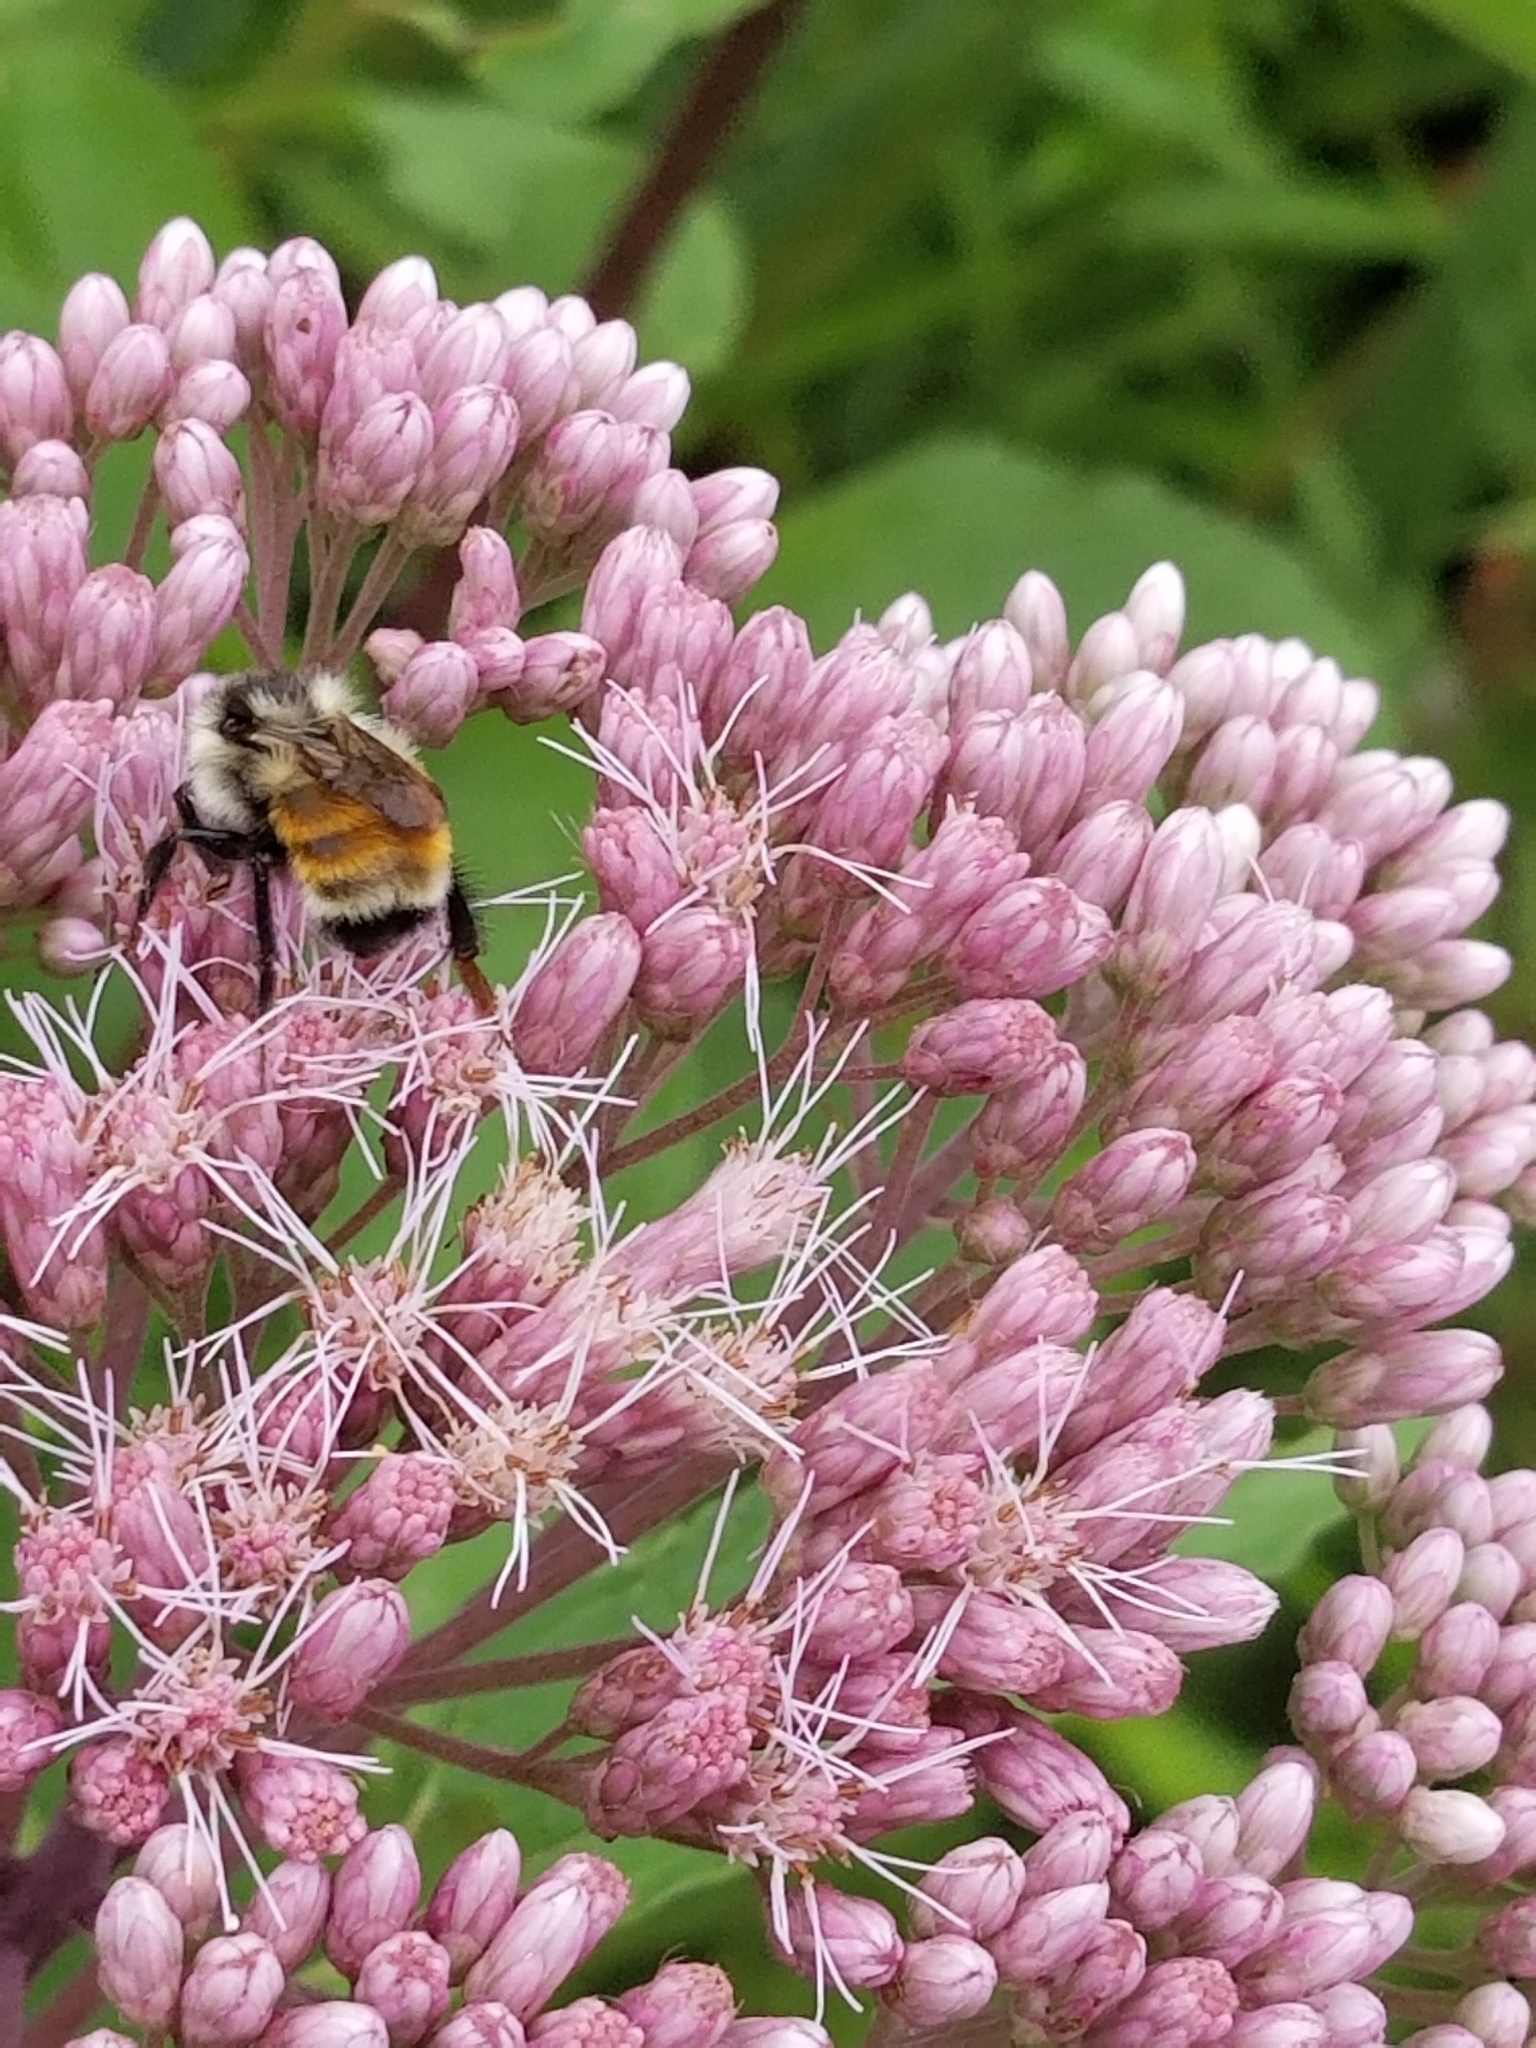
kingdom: Animalia
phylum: Arthropoda
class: Insecta
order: Hymenoptera
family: Apidae
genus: Bombus
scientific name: Bombus ternarius
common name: Tri-colored bumble bee
